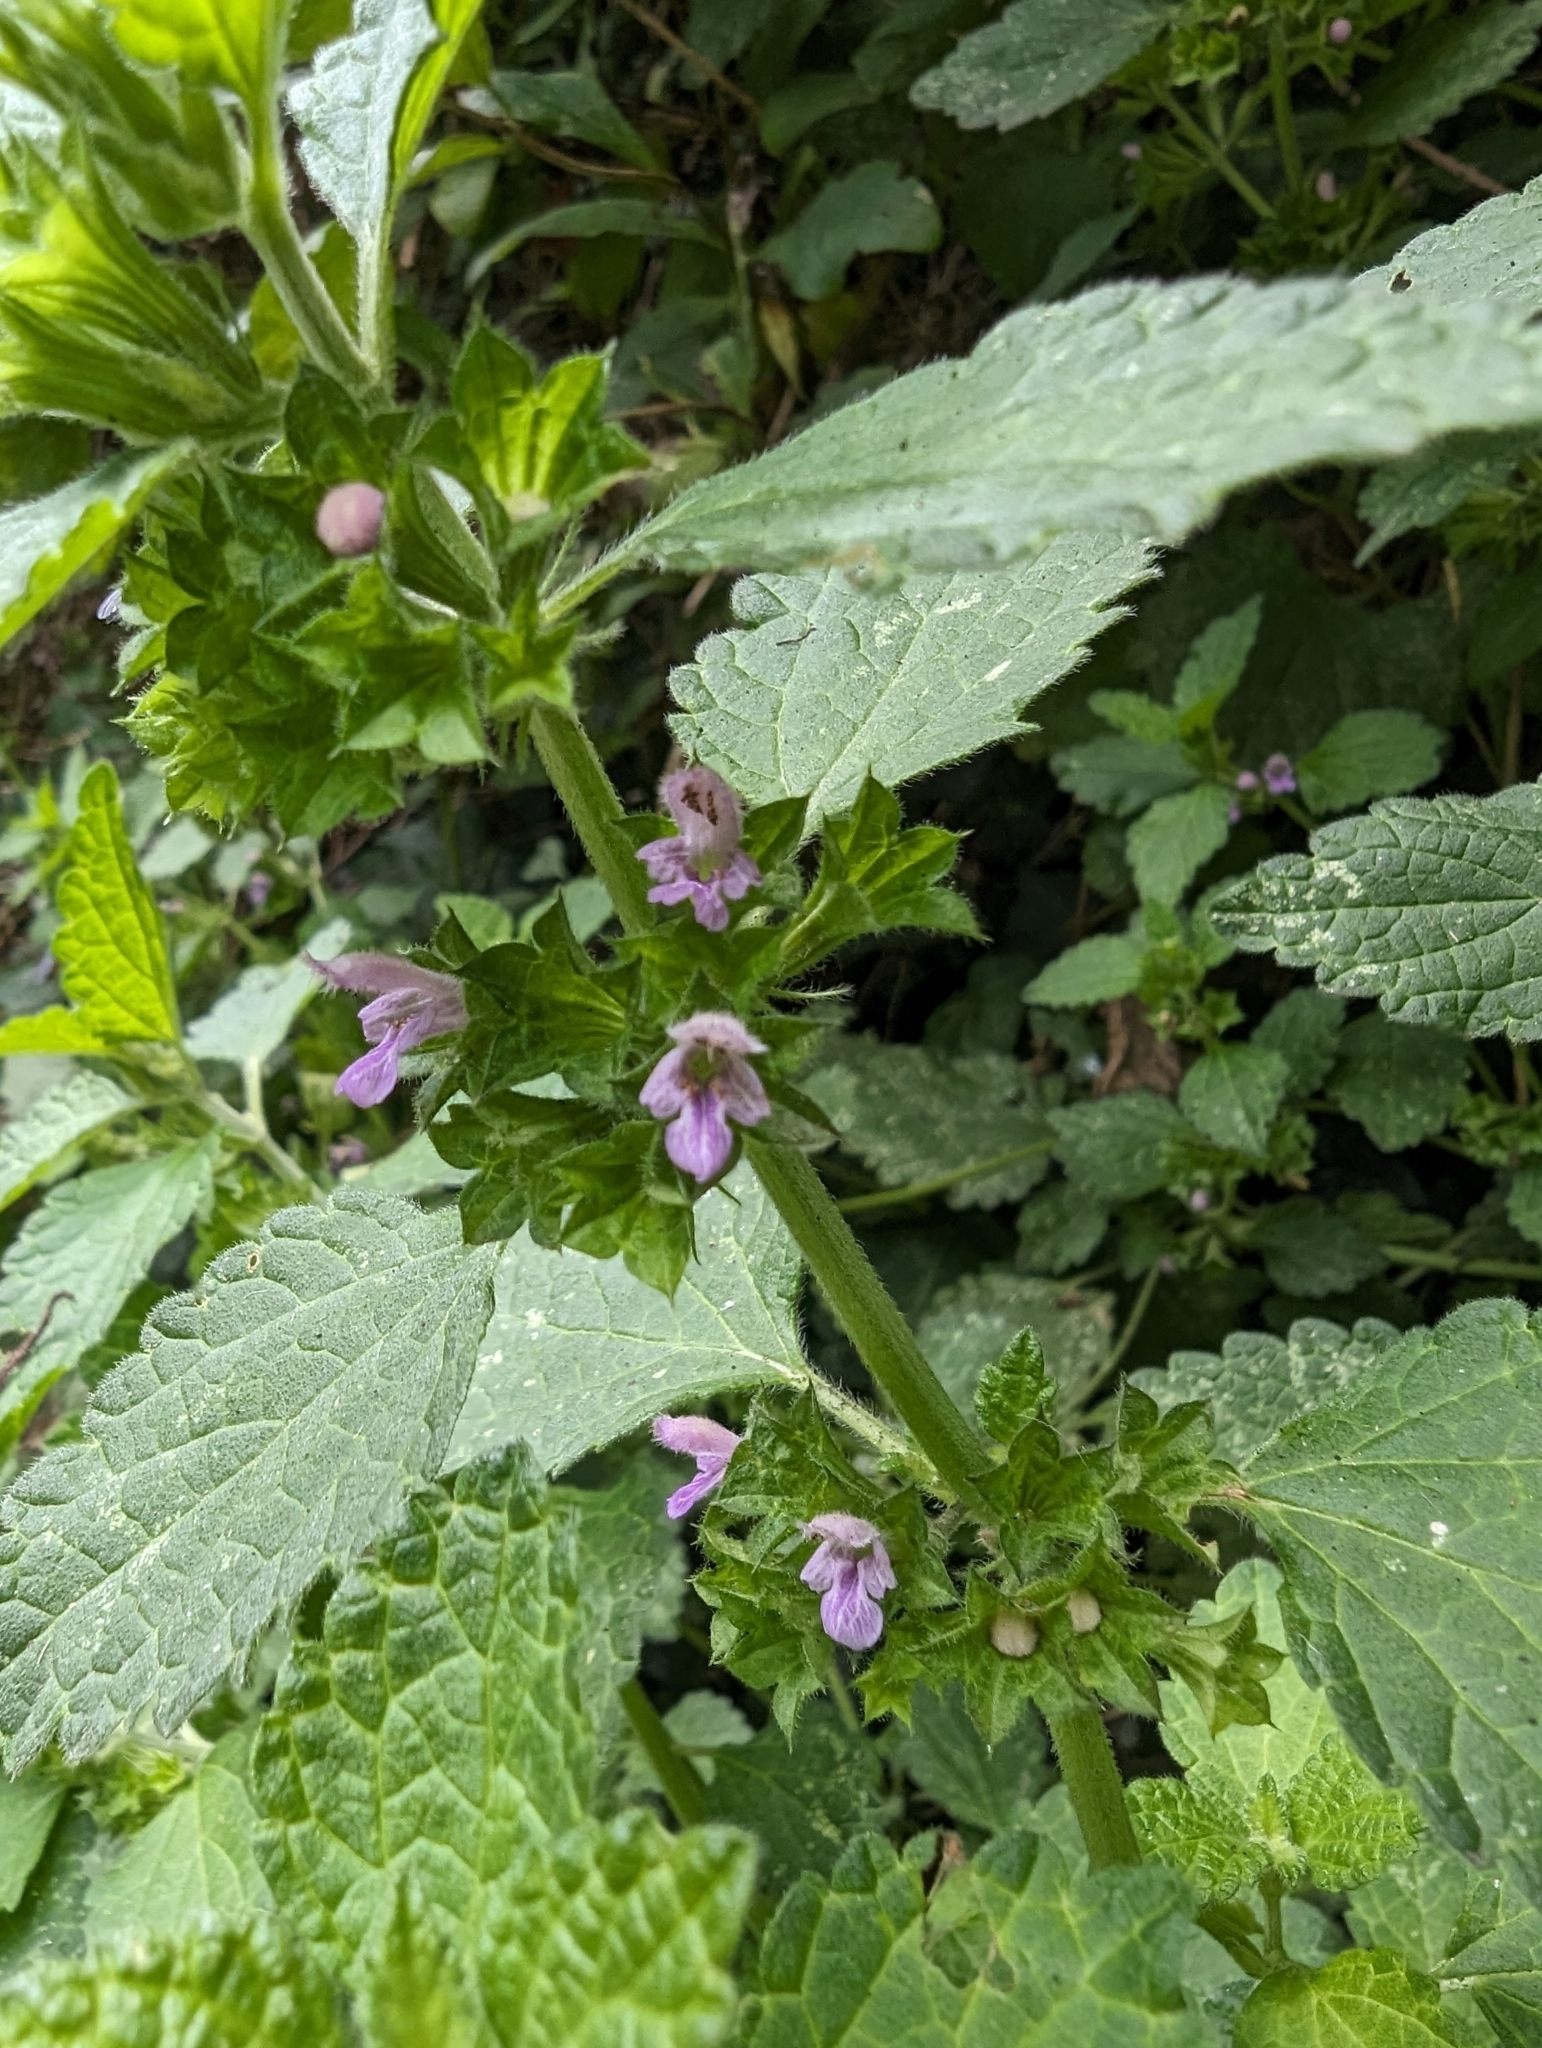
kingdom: Plantae
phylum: Tracheophyta
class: Magnoliopsida
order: Lamiales
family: Lamiaceae
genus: Ballota
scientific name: Ballota nigra
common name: Black horehound
